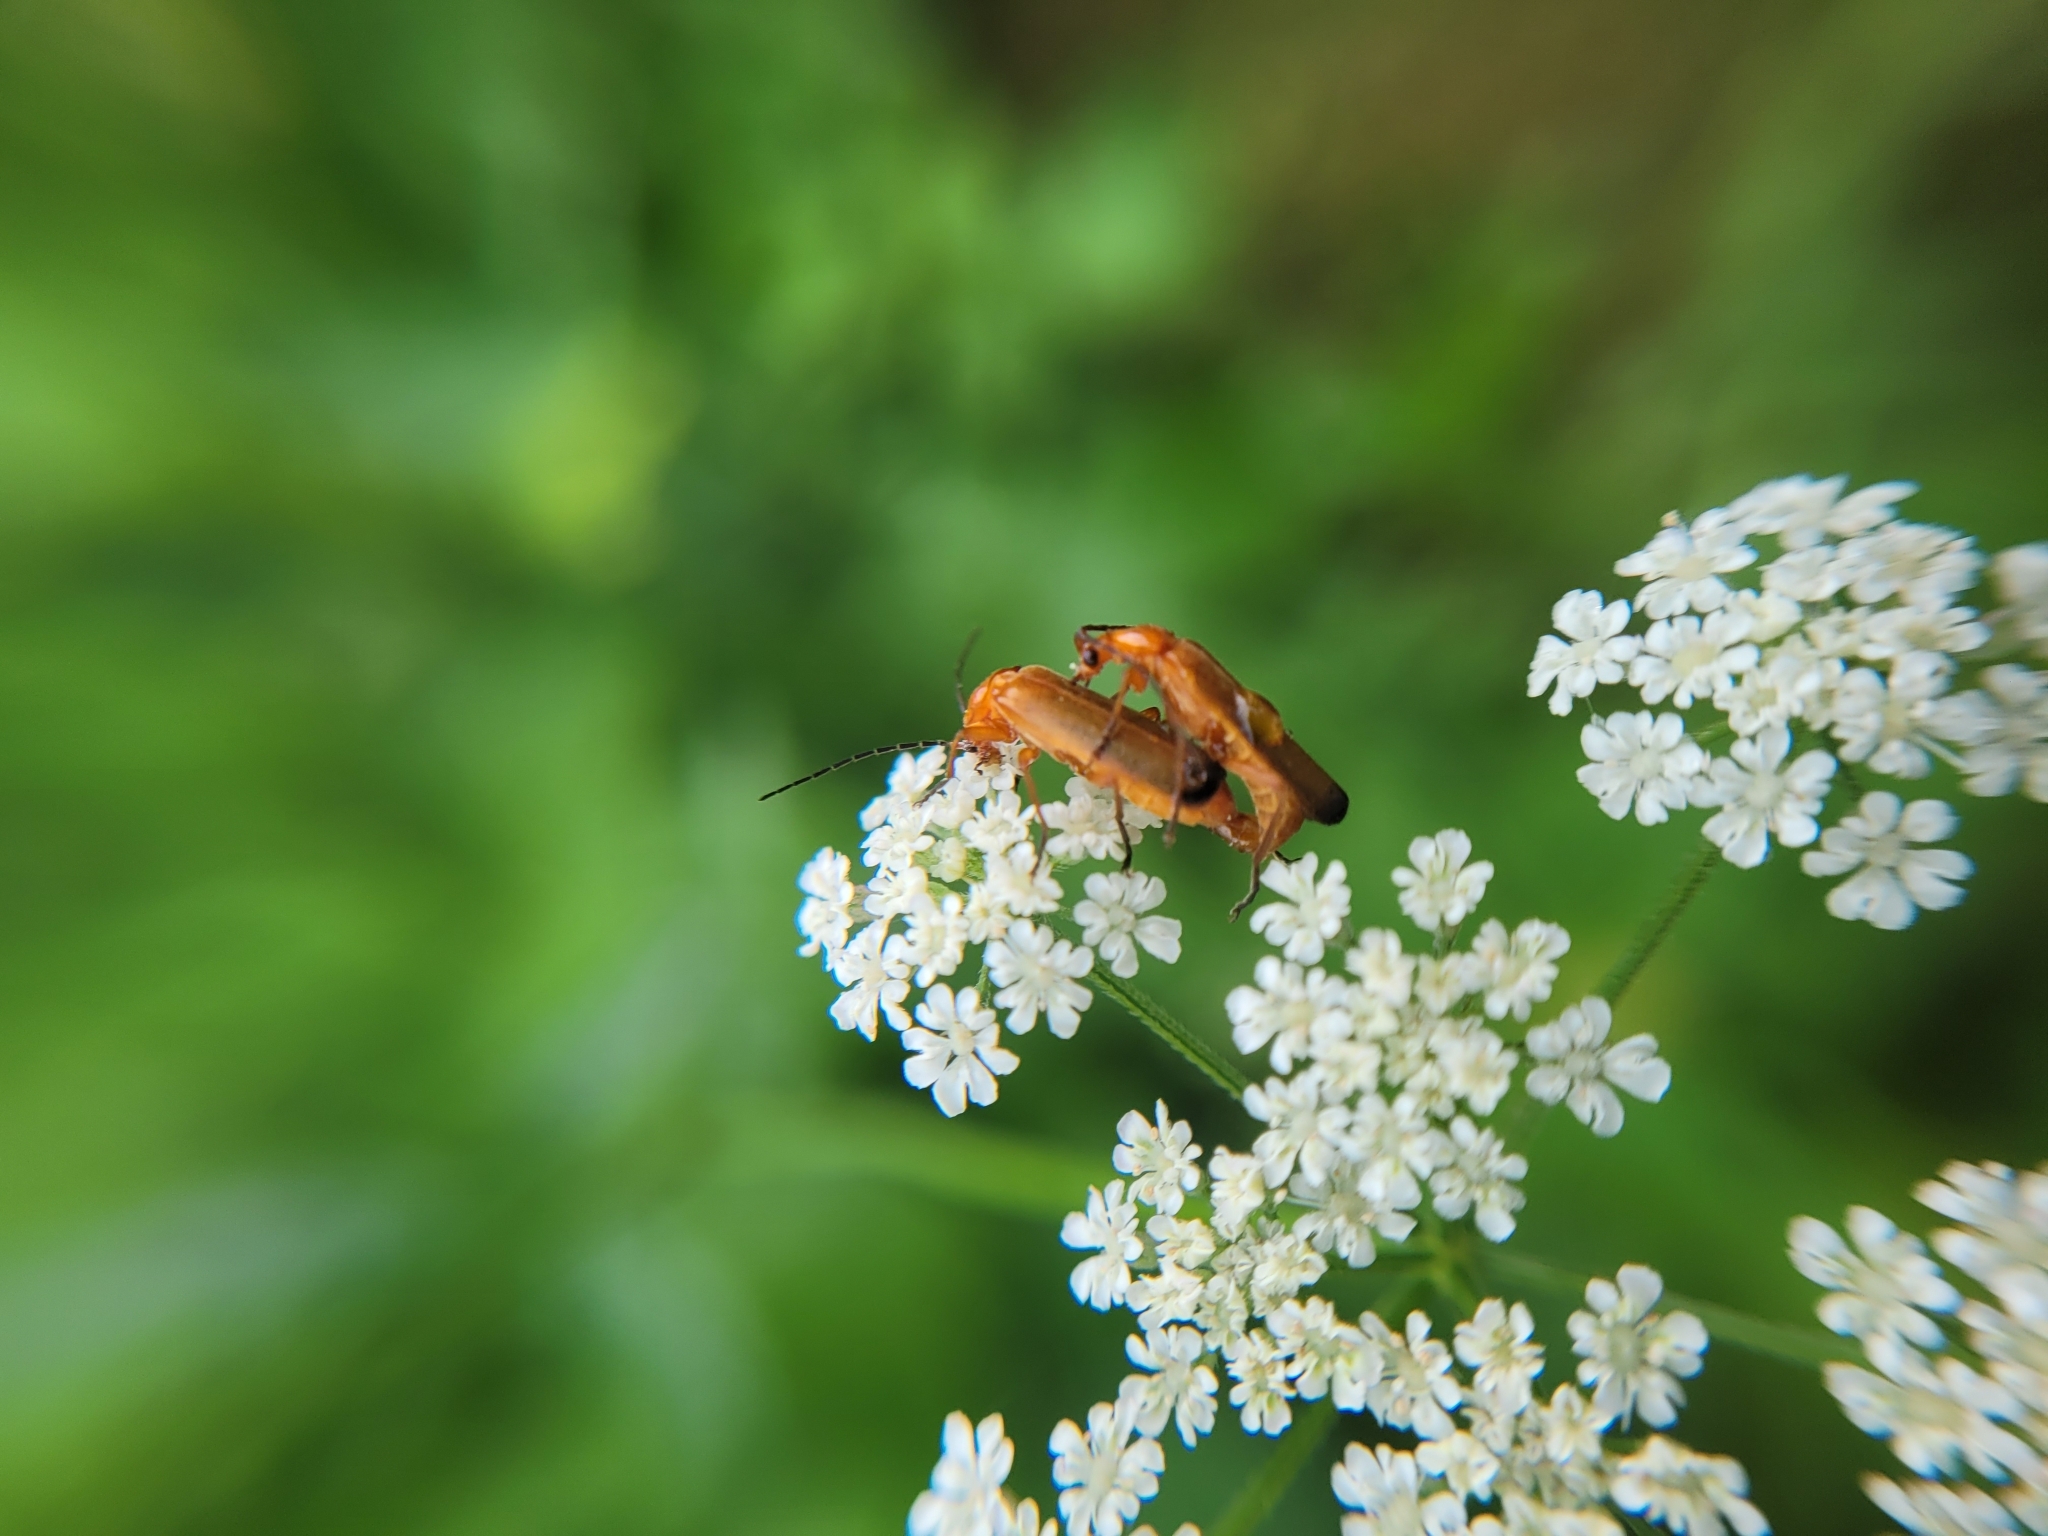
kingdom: Animalia
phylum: Arthropoda
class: Insecta
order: Coleoptera
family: Cantharidae
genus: Rhagonycha
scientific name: Rhagonycha fulva
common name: Common red soldier beetle
